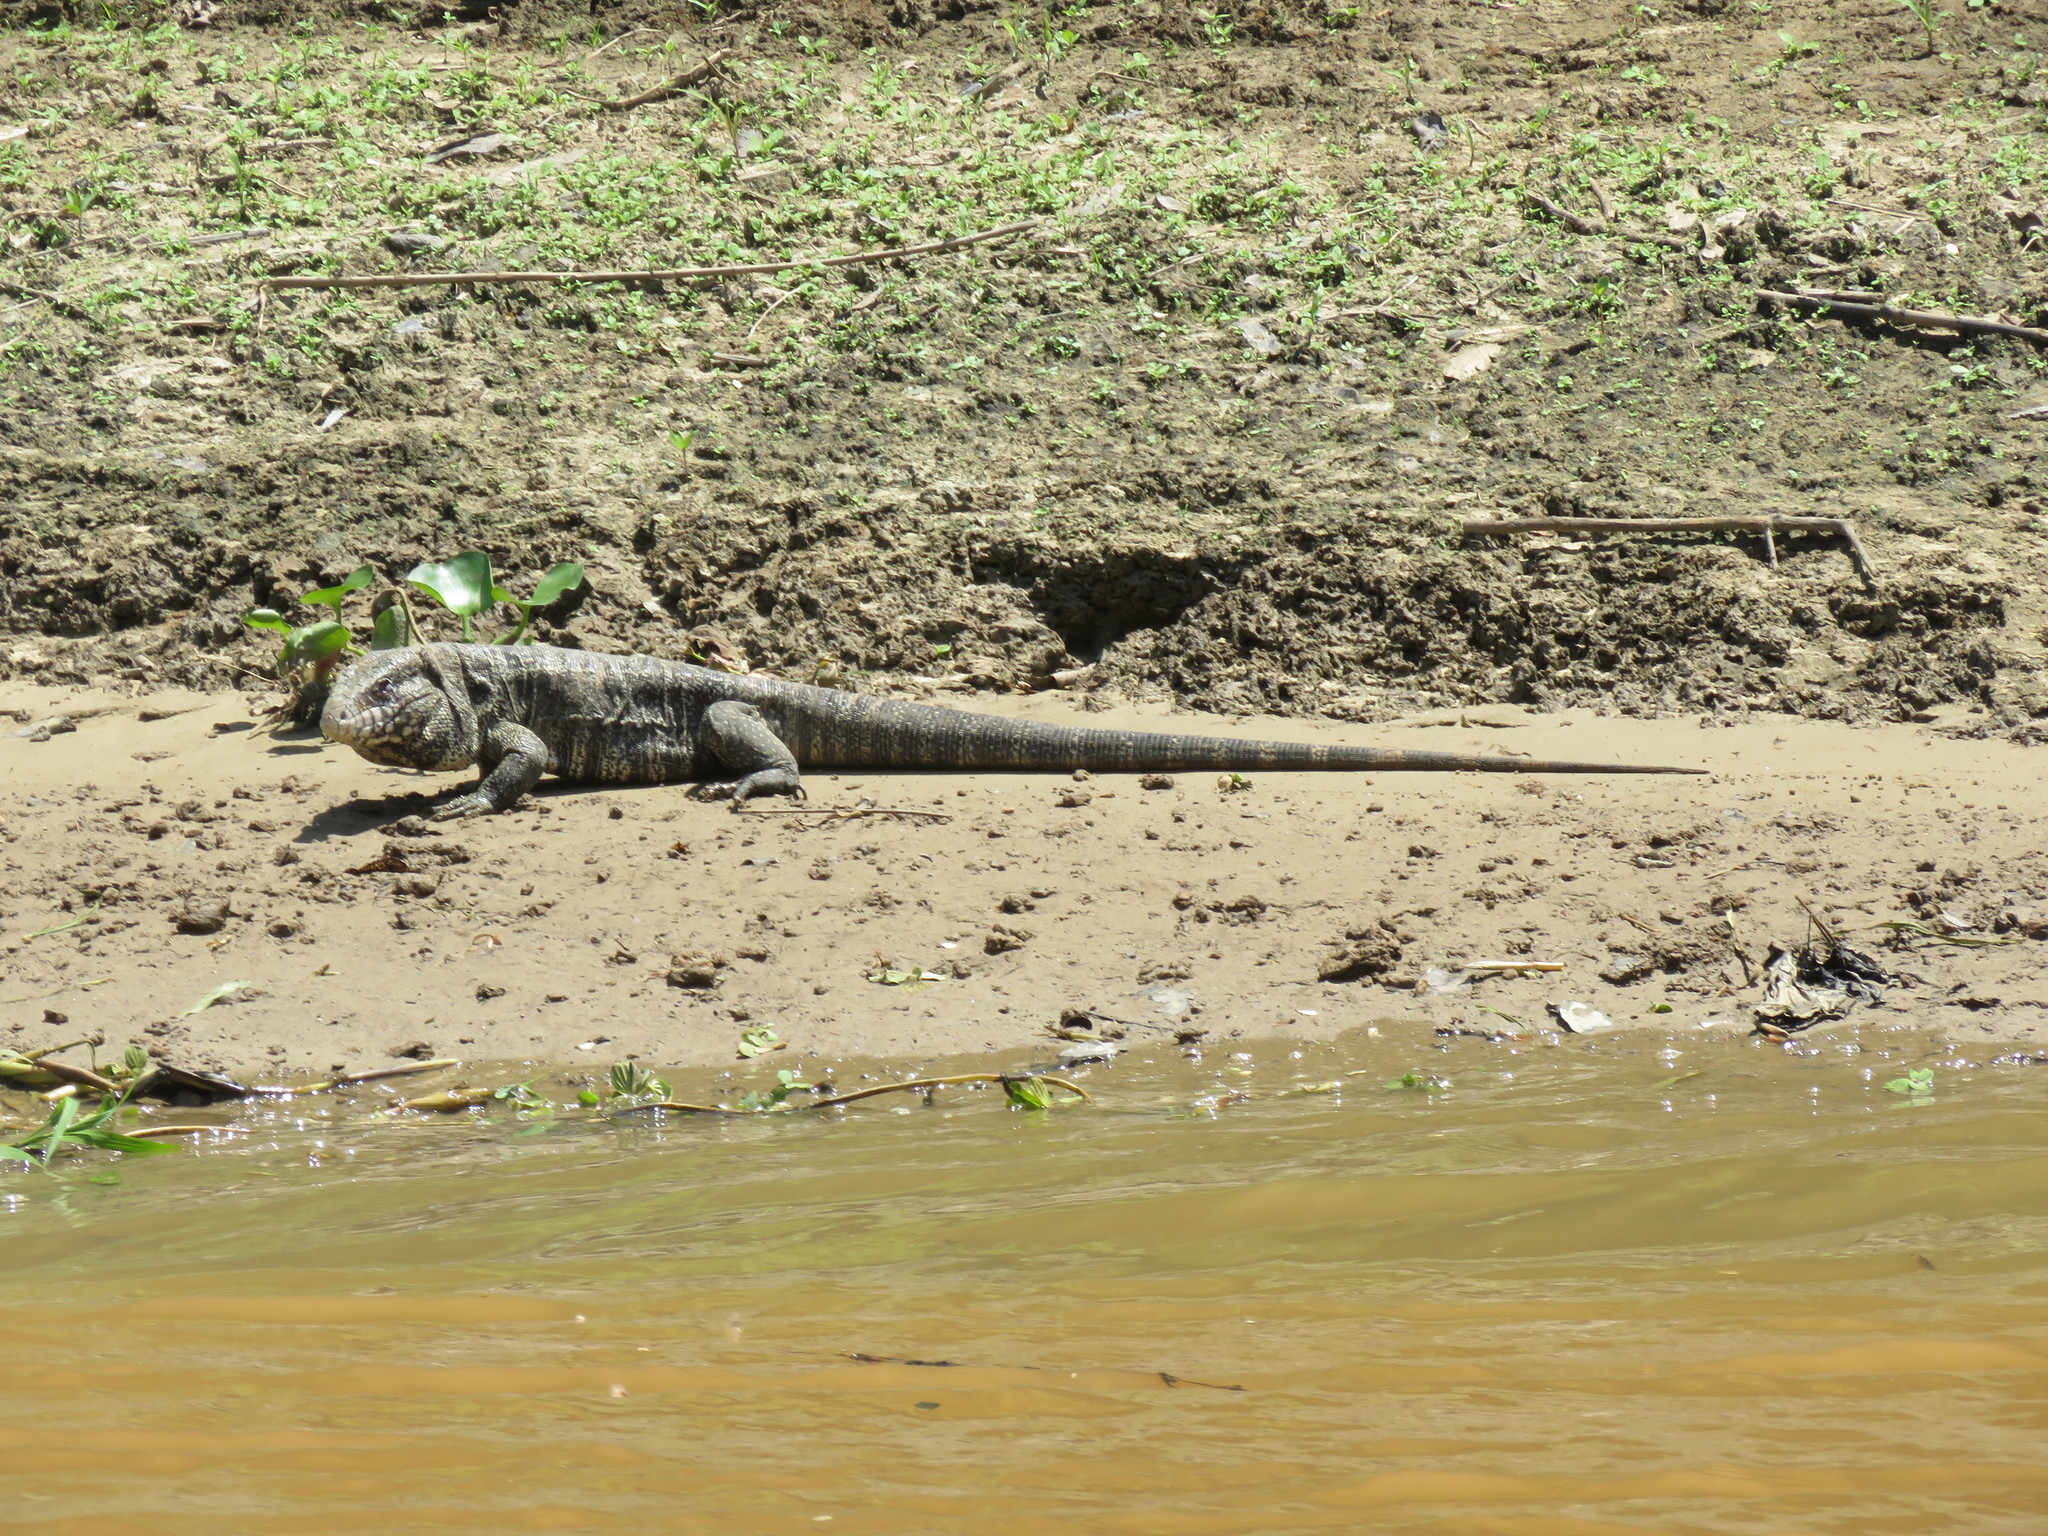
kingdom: Animalia
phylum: Chordata
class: Squamata
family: Teiidae
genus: Salvator
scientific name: Salvator merianae
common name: Argentine black and white tegu
